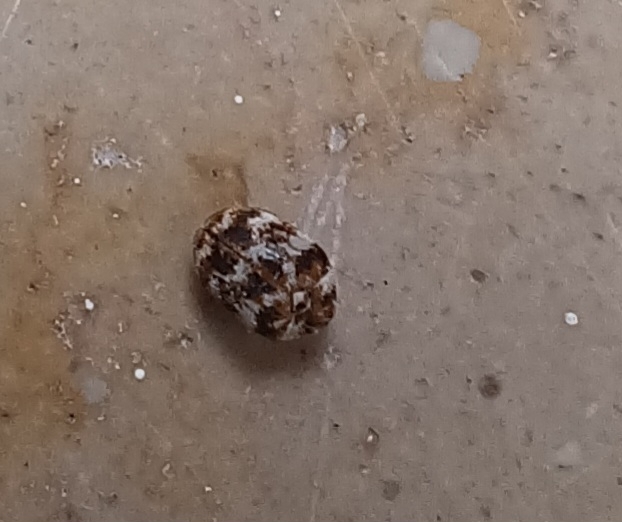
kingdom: Animalia
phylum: Arthropoda
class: Insecta
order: Coleoptera
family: Dermestidae
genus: Anthrenus
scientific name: Anthrenus verbasci
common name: Varied carpet beetle
